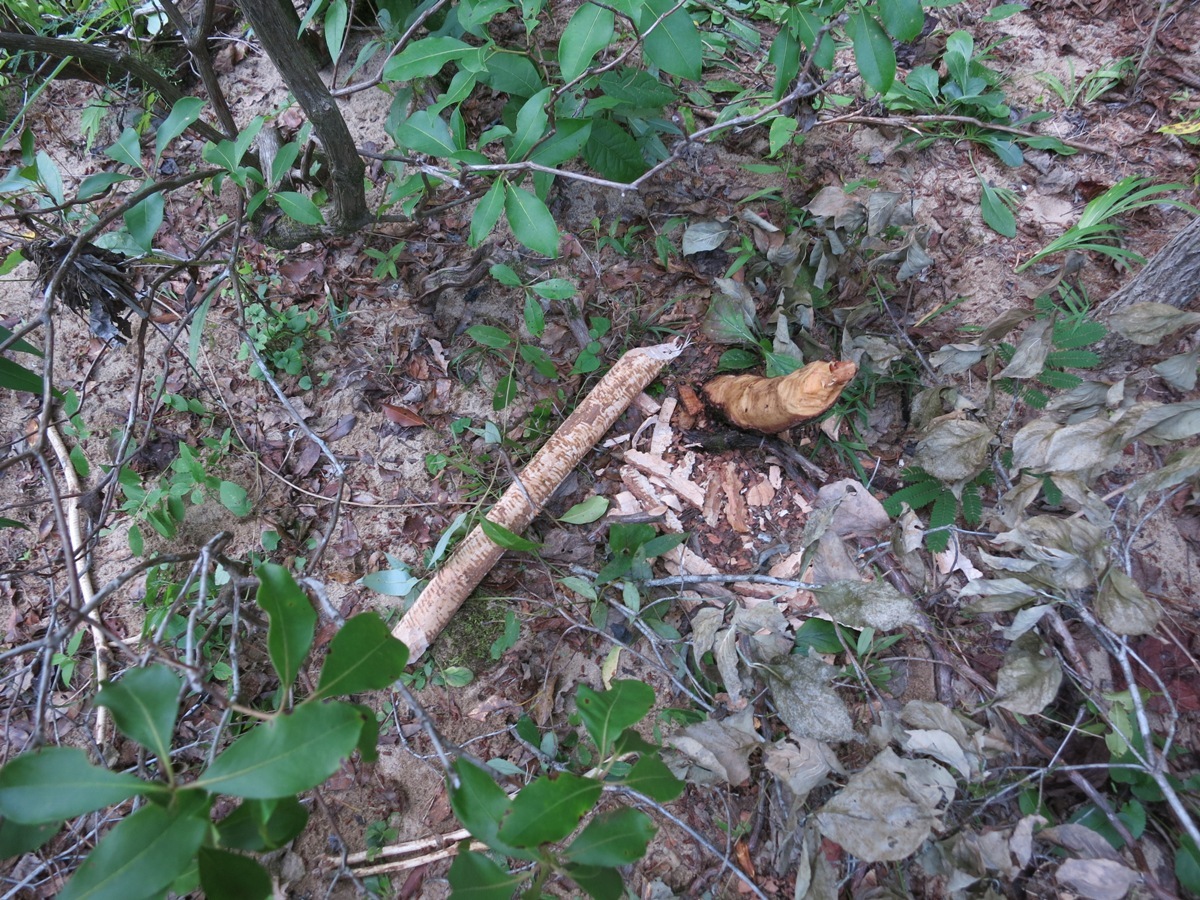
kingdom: Animalia
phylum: Chordata
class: Mammalia
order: Rodentia
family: Castoridae
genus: Castor
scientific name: Castor canadensis
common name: American beaver
